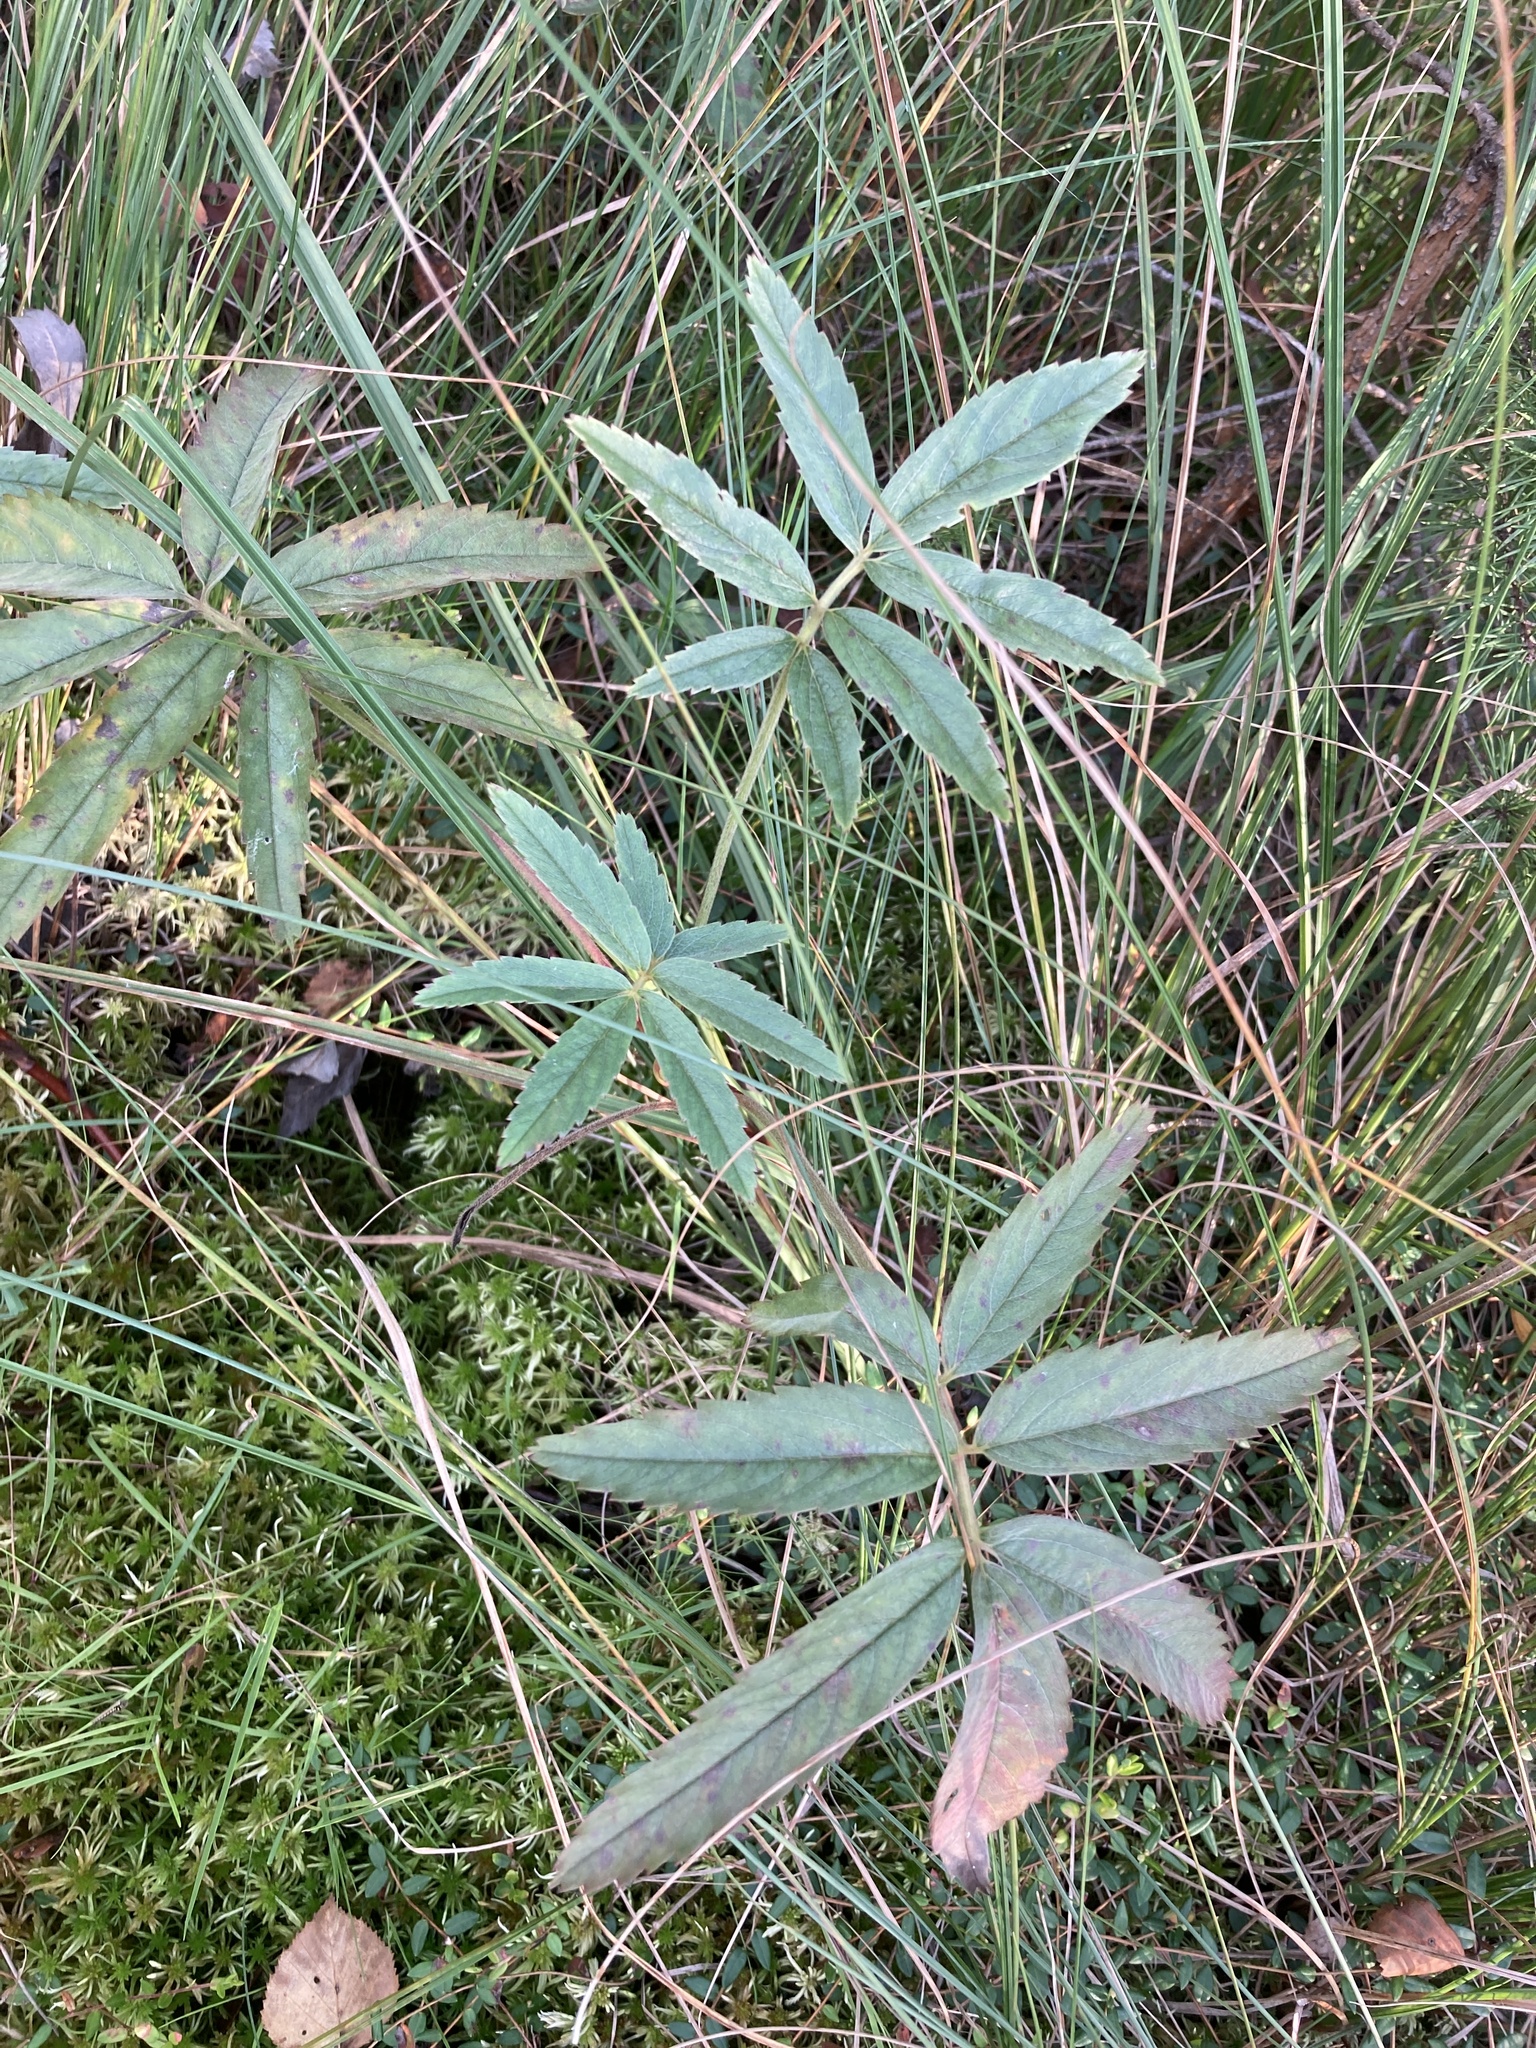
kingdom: Plantae
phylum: Tracheophyta
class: Magnoliopsida
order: Rosales
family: Rosaceae
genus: Comarum
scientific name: Comarum palustre
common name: Marsh cinquefoil
